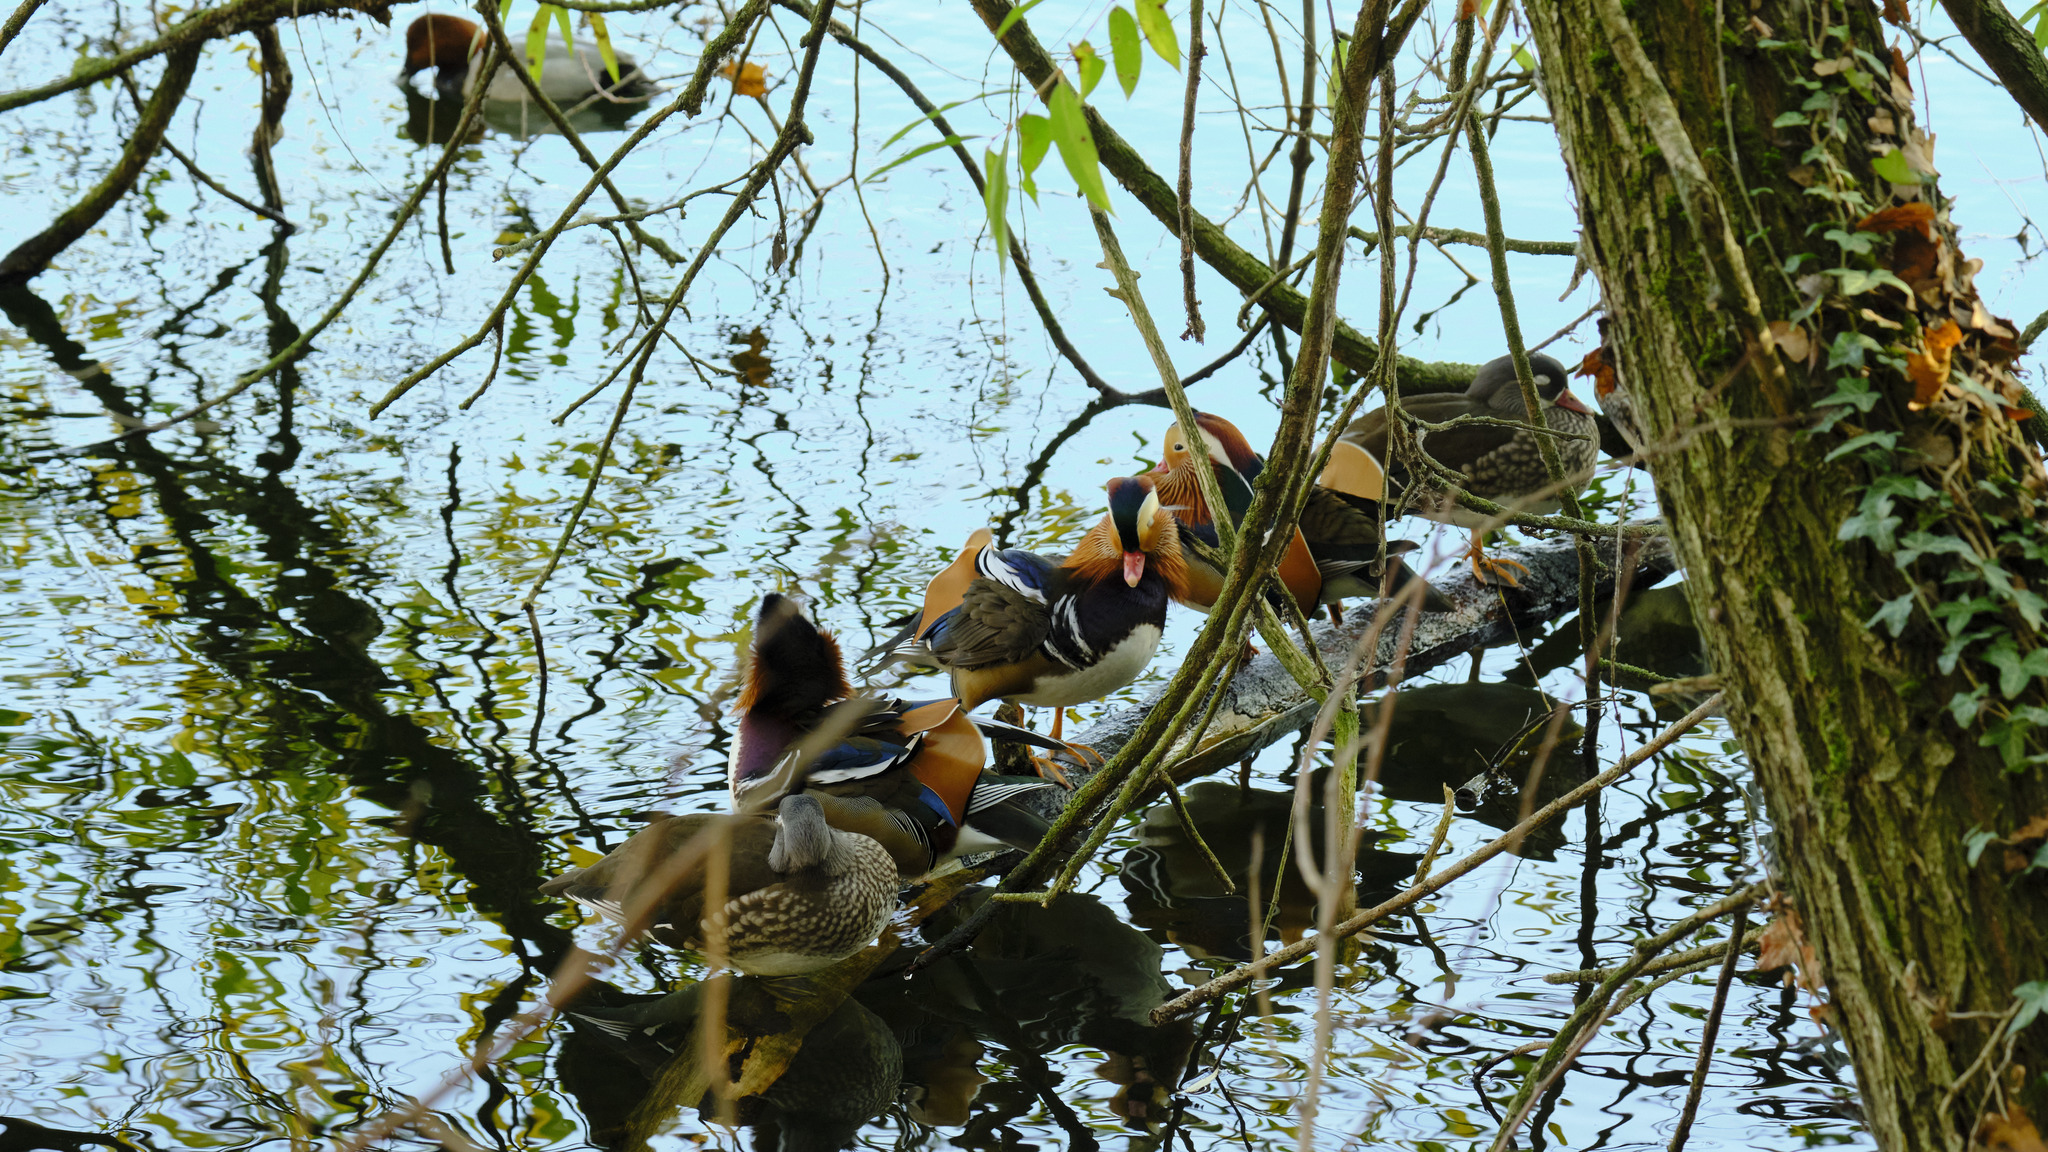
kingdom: Animalia
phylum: Chordata
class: Aves
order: Anseriformes
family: Anatidae
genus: Aix
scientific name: Aix galericulata
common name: Mandarin duck
